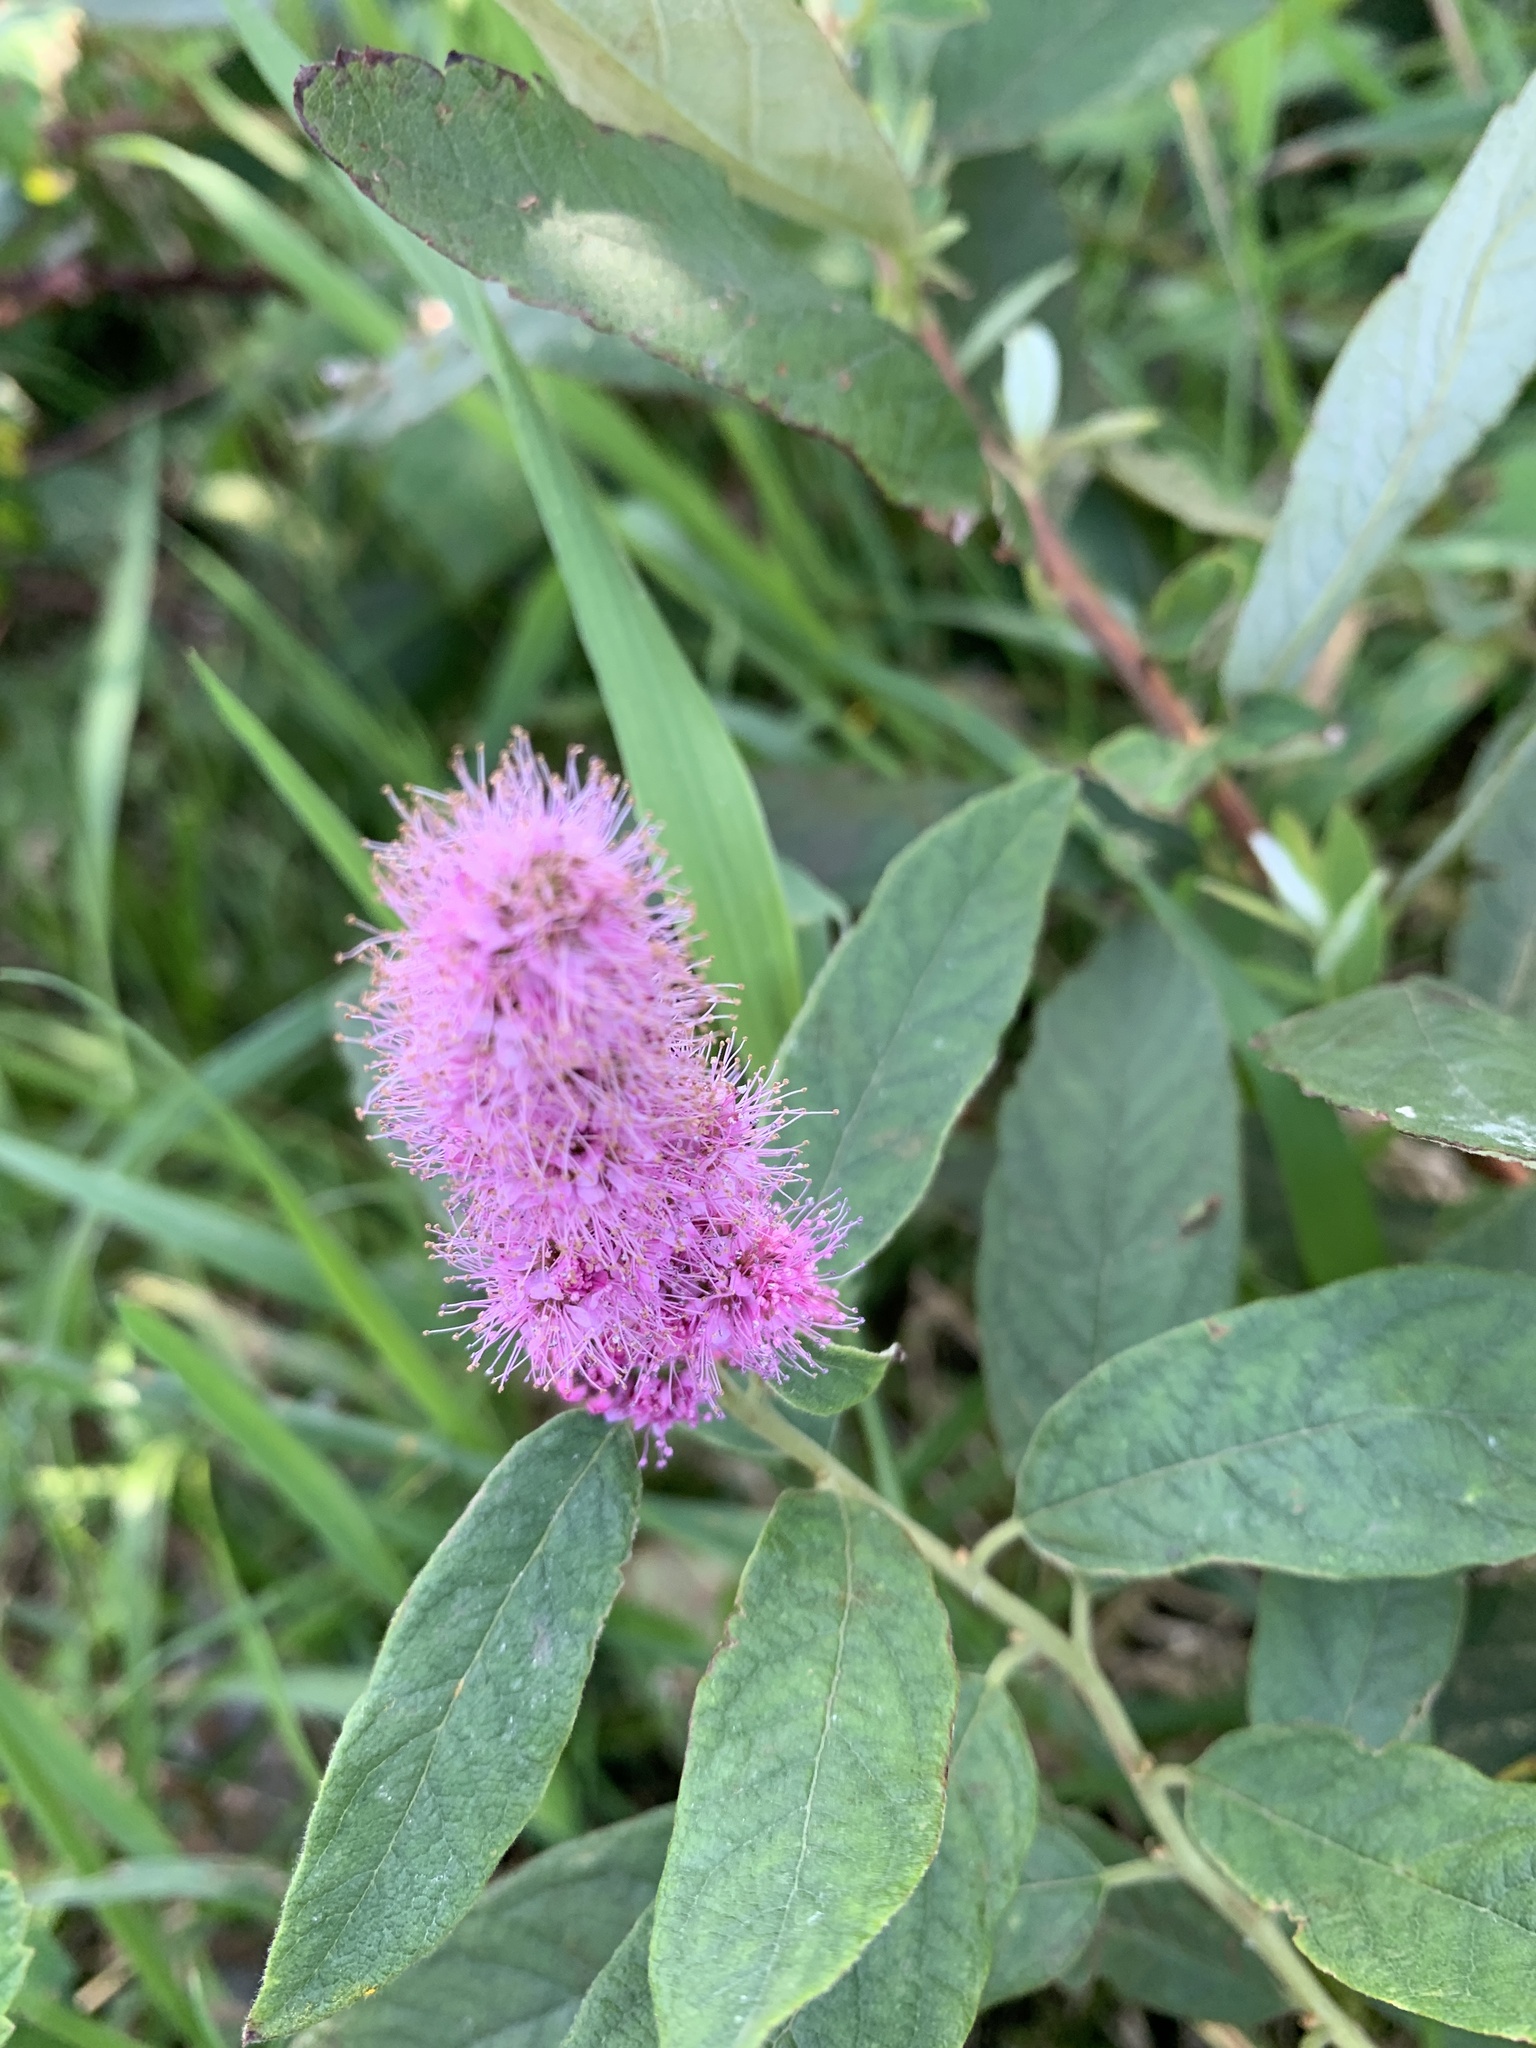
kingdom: Plantae
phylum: Tracheophyta
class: Magnoliopsida
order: Rosales
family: Rosaceae
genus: Spiraea
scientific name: Spiraea douglasii
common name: Steeplebush
